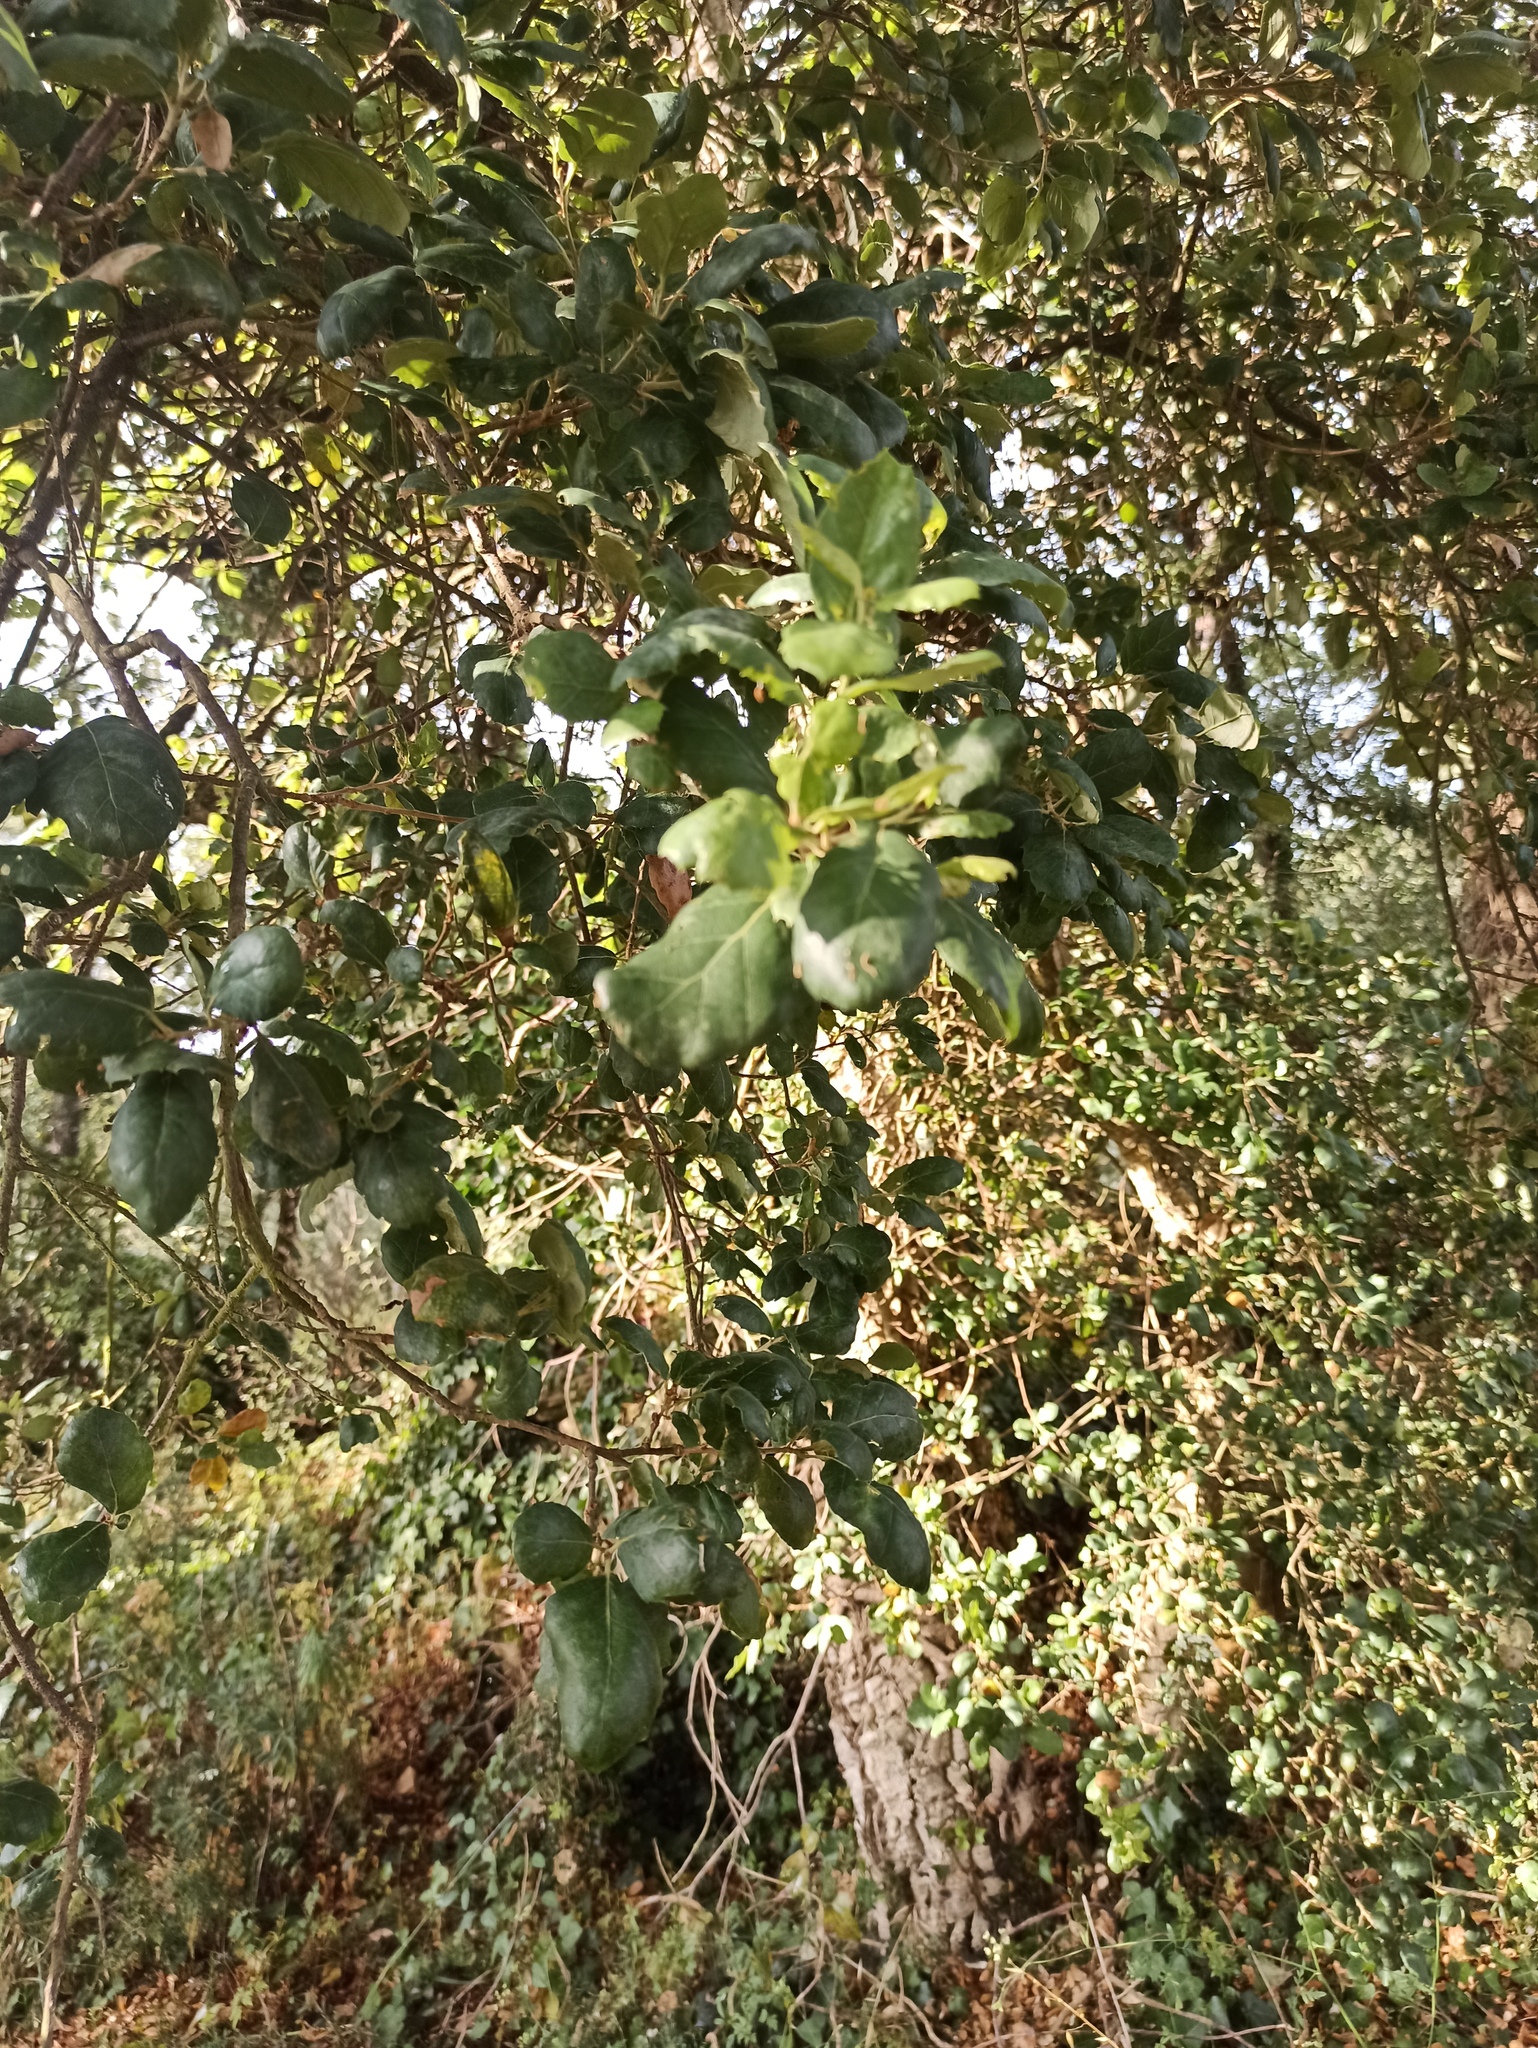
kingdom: Plantae
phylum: Tracheophyta
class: Magnoliopsida
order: Fagales
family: Fagaceae
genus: Quercus
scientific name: Quercus suber
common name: Cork oak
